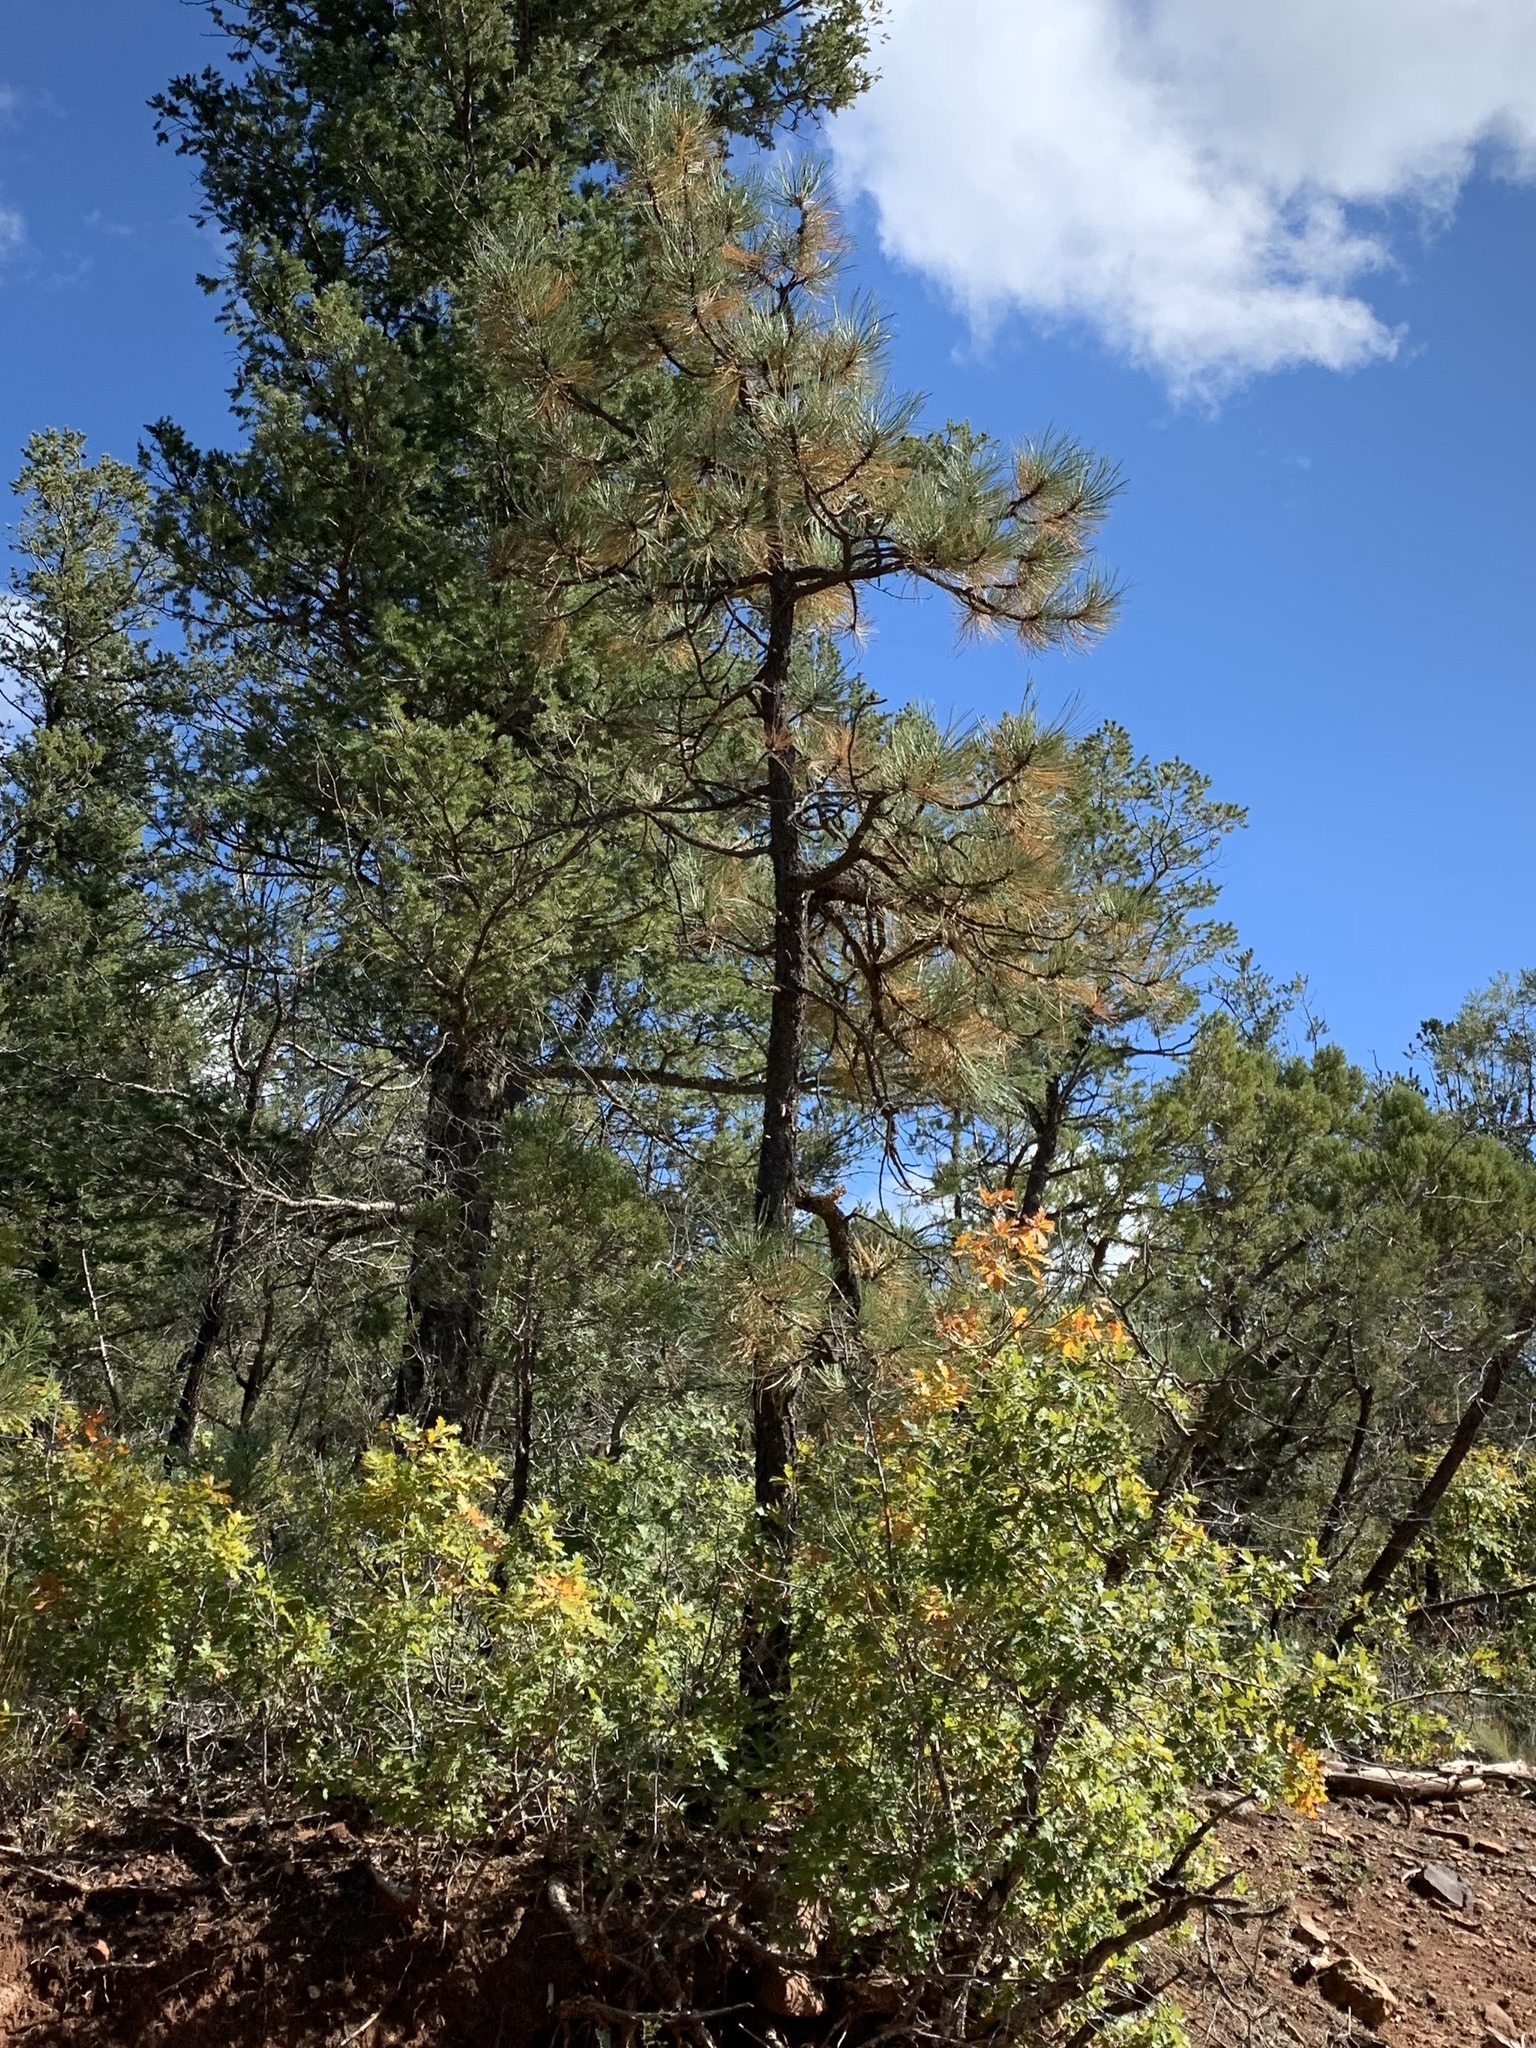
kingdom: Plantae
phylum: Tracheophyta
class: Pinopsida
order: Pinales
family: Pinaceae
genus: Pinus
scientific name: Pinus ponderosa
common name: Western yellow-pine
